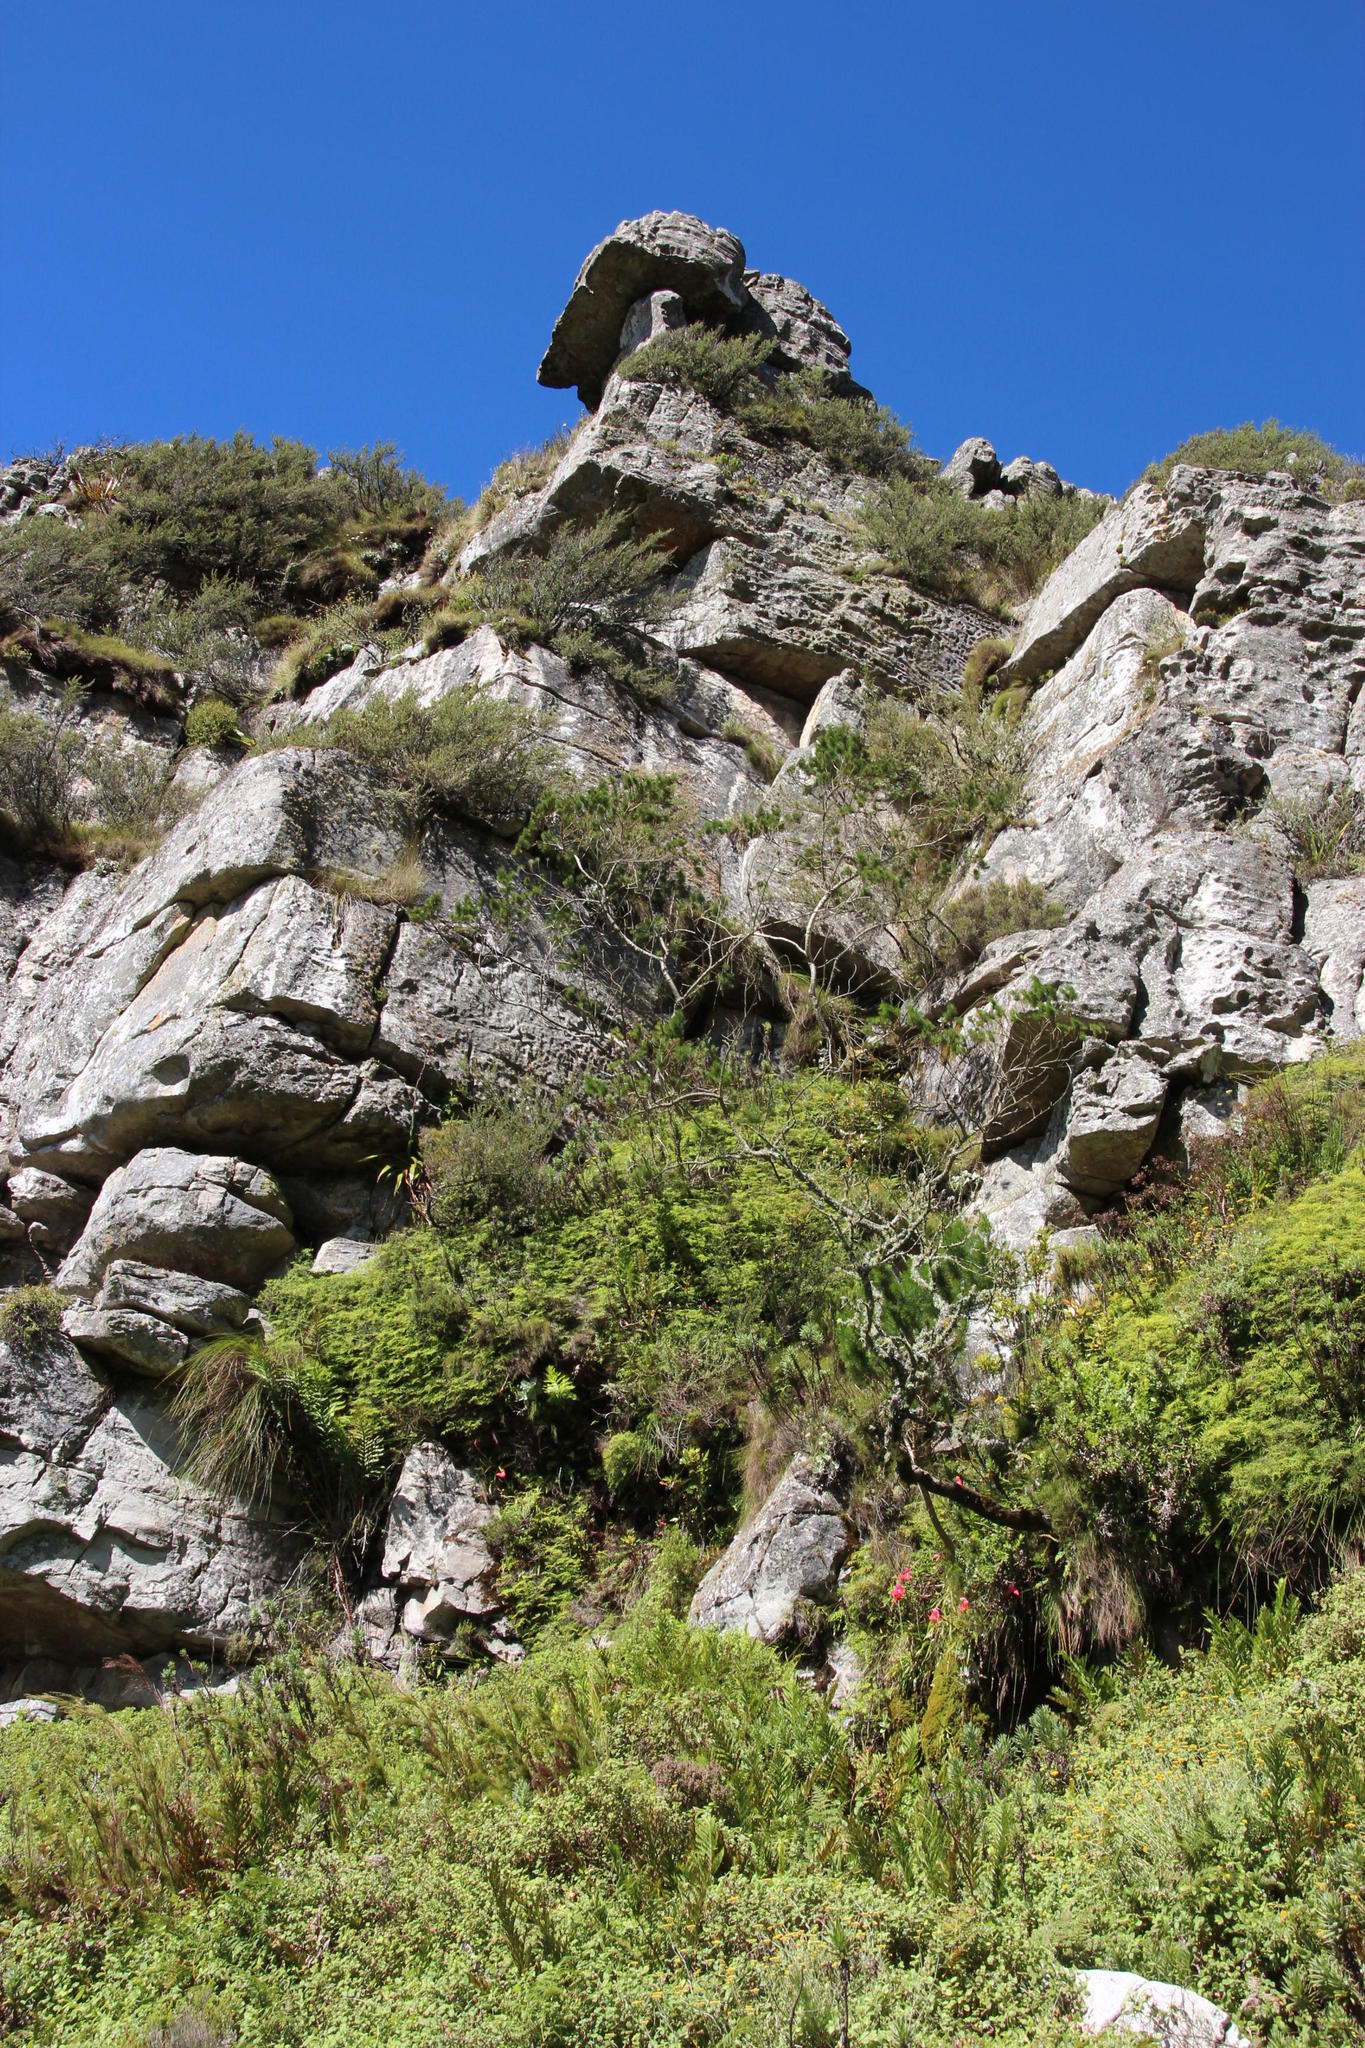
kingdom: Plantae
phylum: Tracheophyta
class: Liliopsida
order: Asparagales
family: Orchidaceae
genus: Disa
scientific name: Disa uniflora
